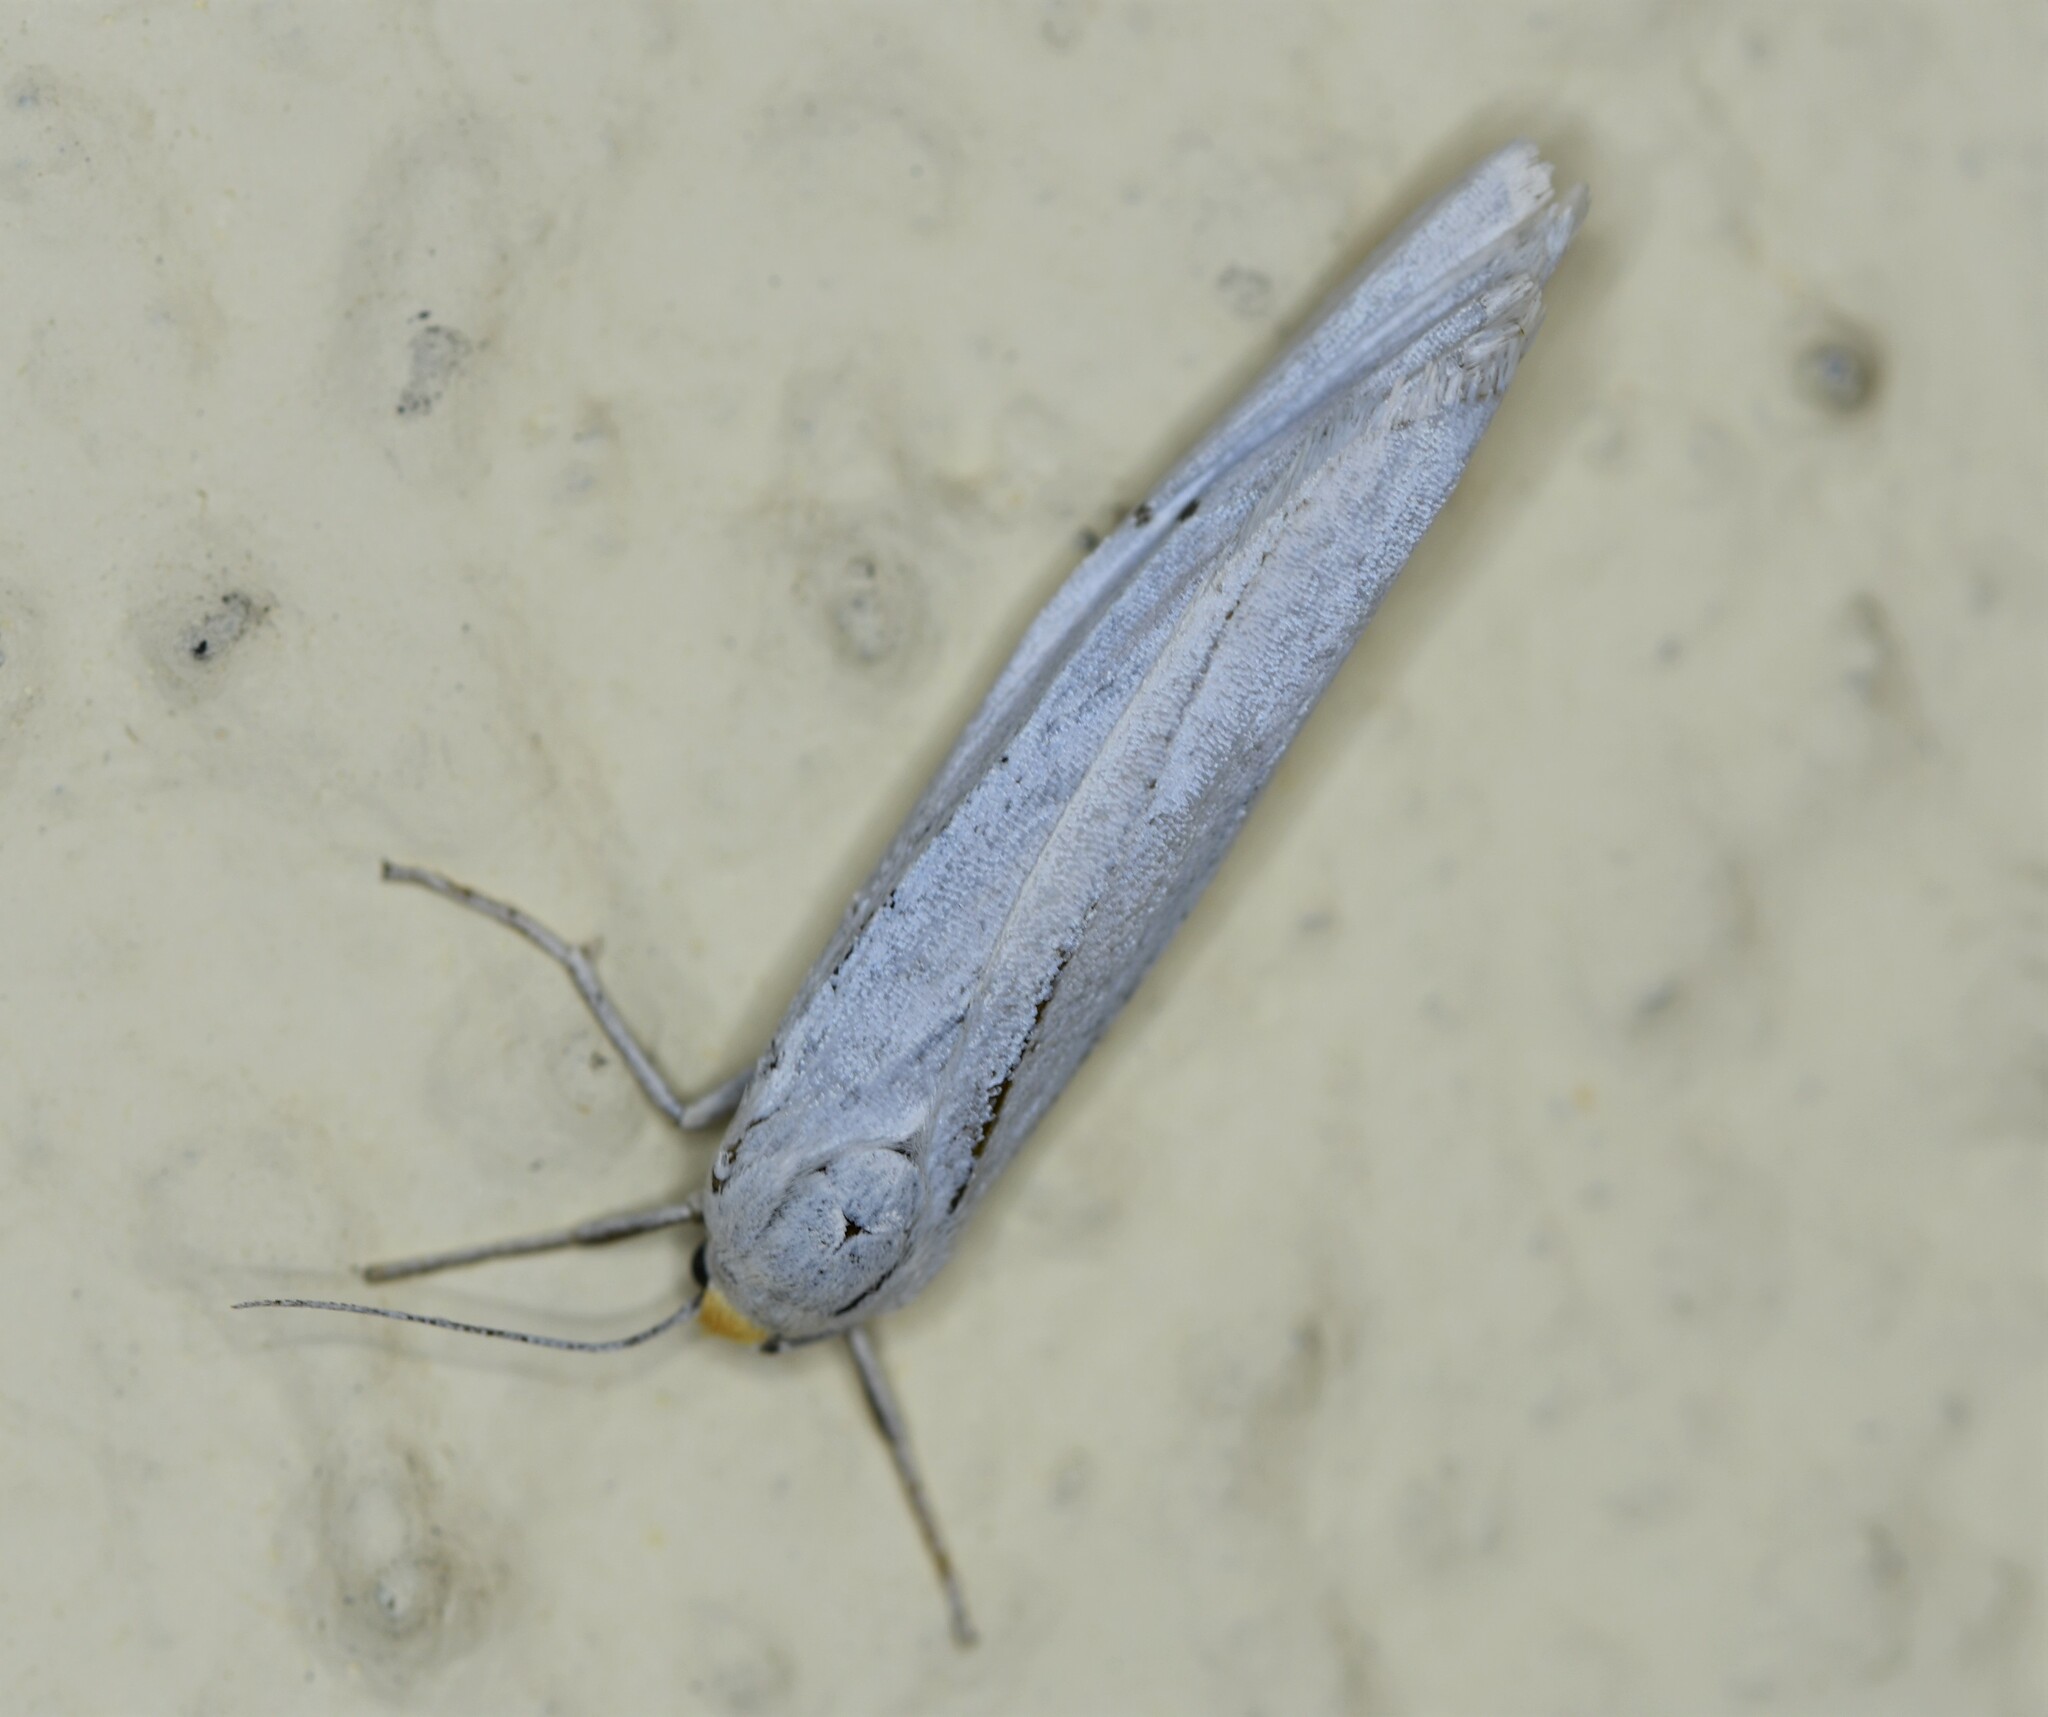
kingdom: Animalia
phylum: Arthropoda
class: Insecta
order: Lepidoptera
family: Erebidae
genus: Coscinia
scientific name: Coscinia cribraria
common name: Speckled footman
